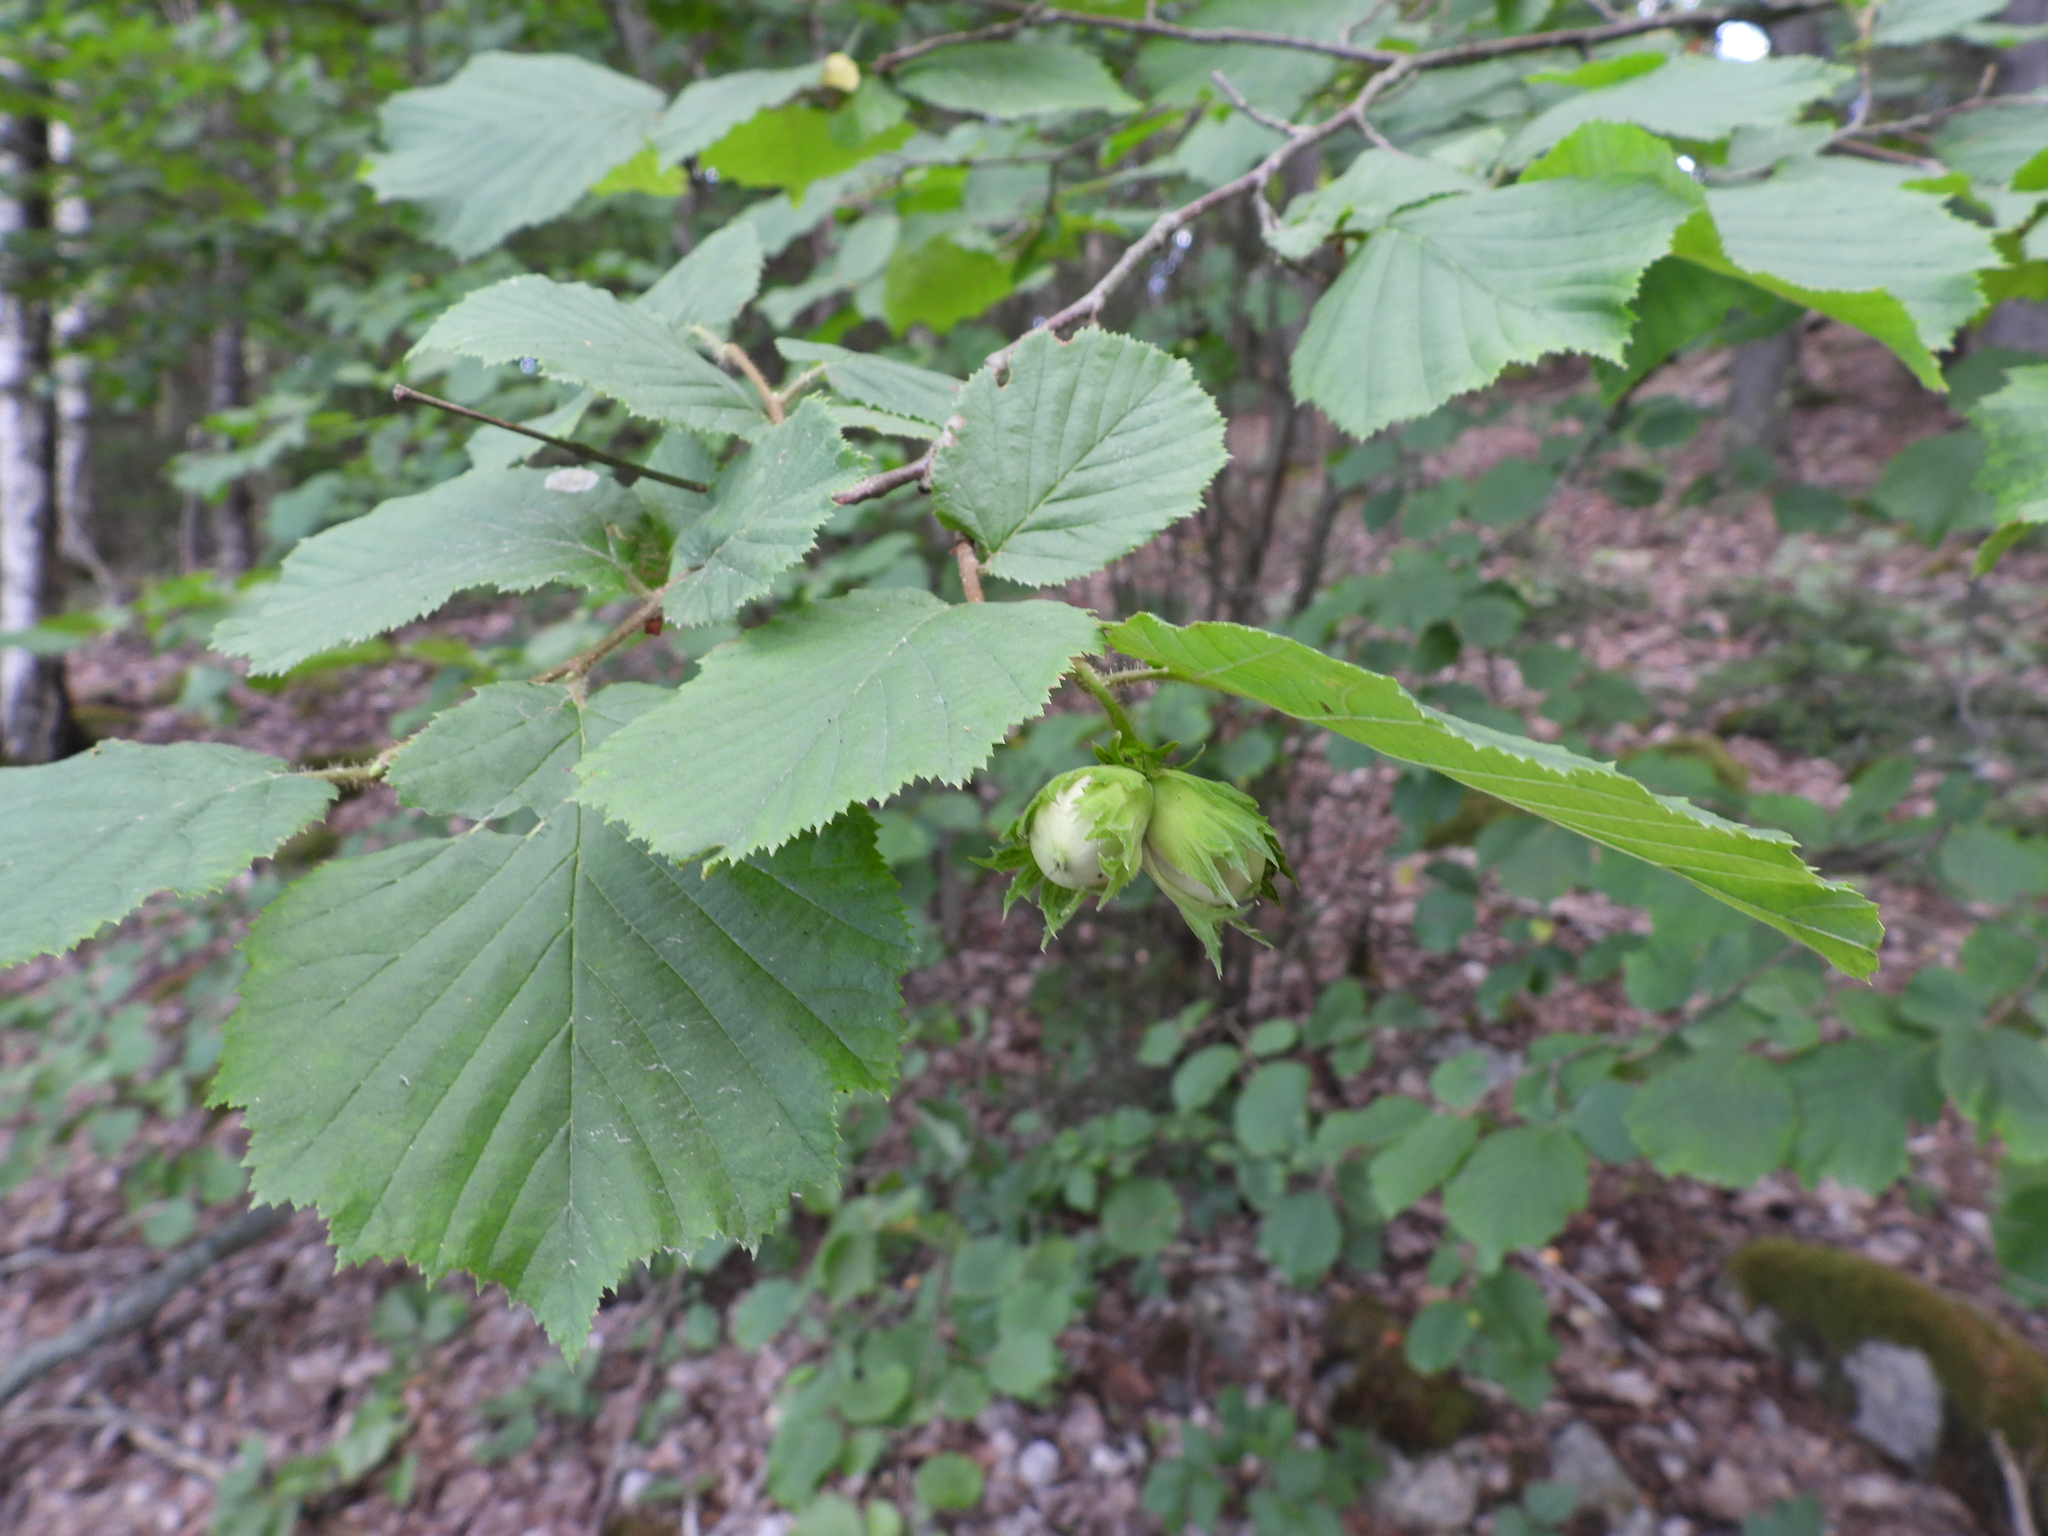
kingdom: Plantae
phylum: Tracheophyta
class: Magnoliopsida
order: Fagales
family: Betulaceae
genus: Corylus
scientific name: Corylus avellana
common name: European hazel
